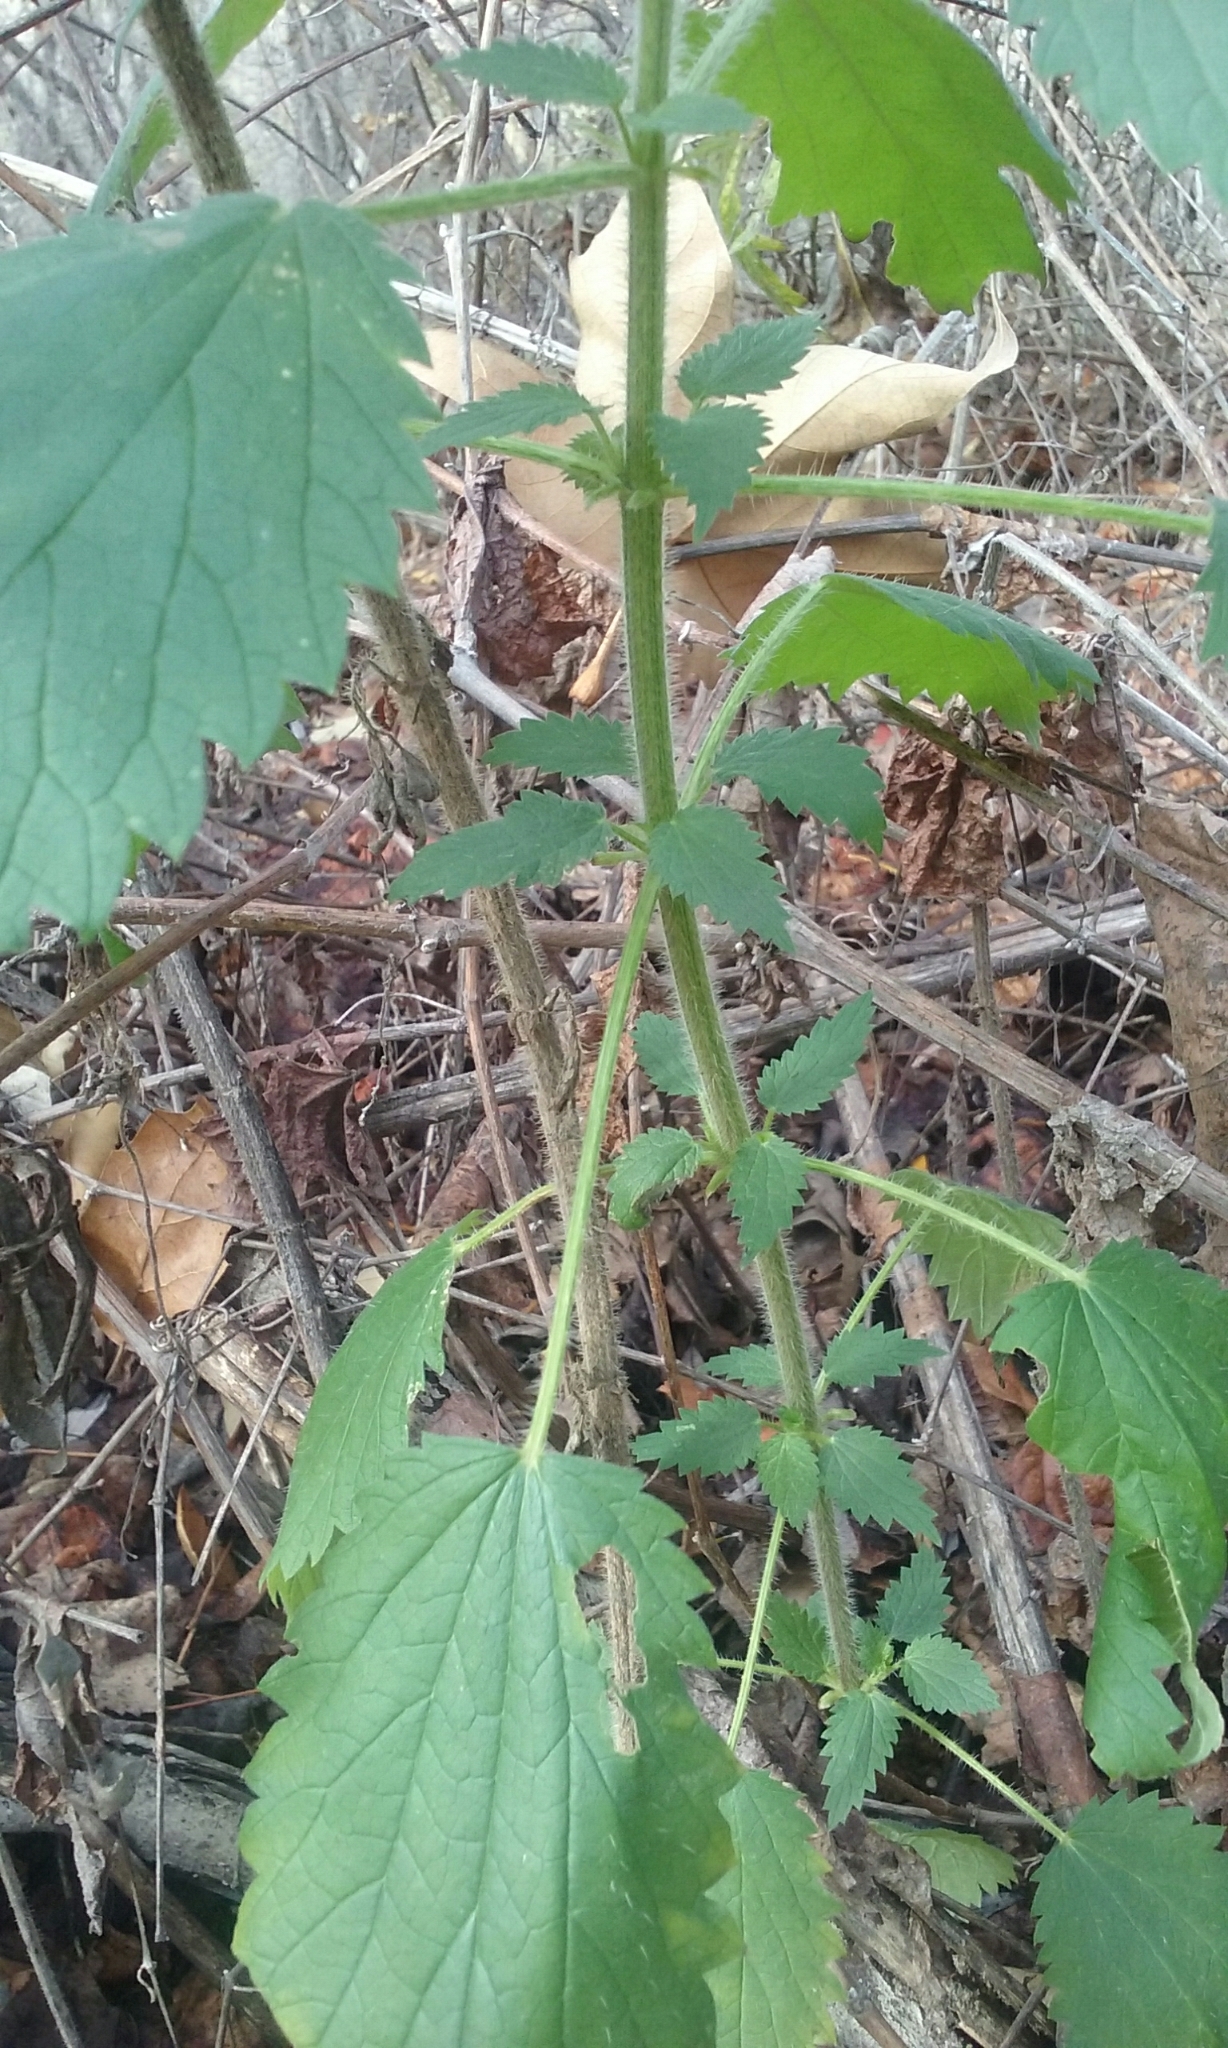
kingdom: Plantae
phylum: Tracheophyta
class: Magnoliopsida
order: Rosales
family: Urticaceae
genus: Urtica
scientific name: Urtica dioica
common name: Common nettle
